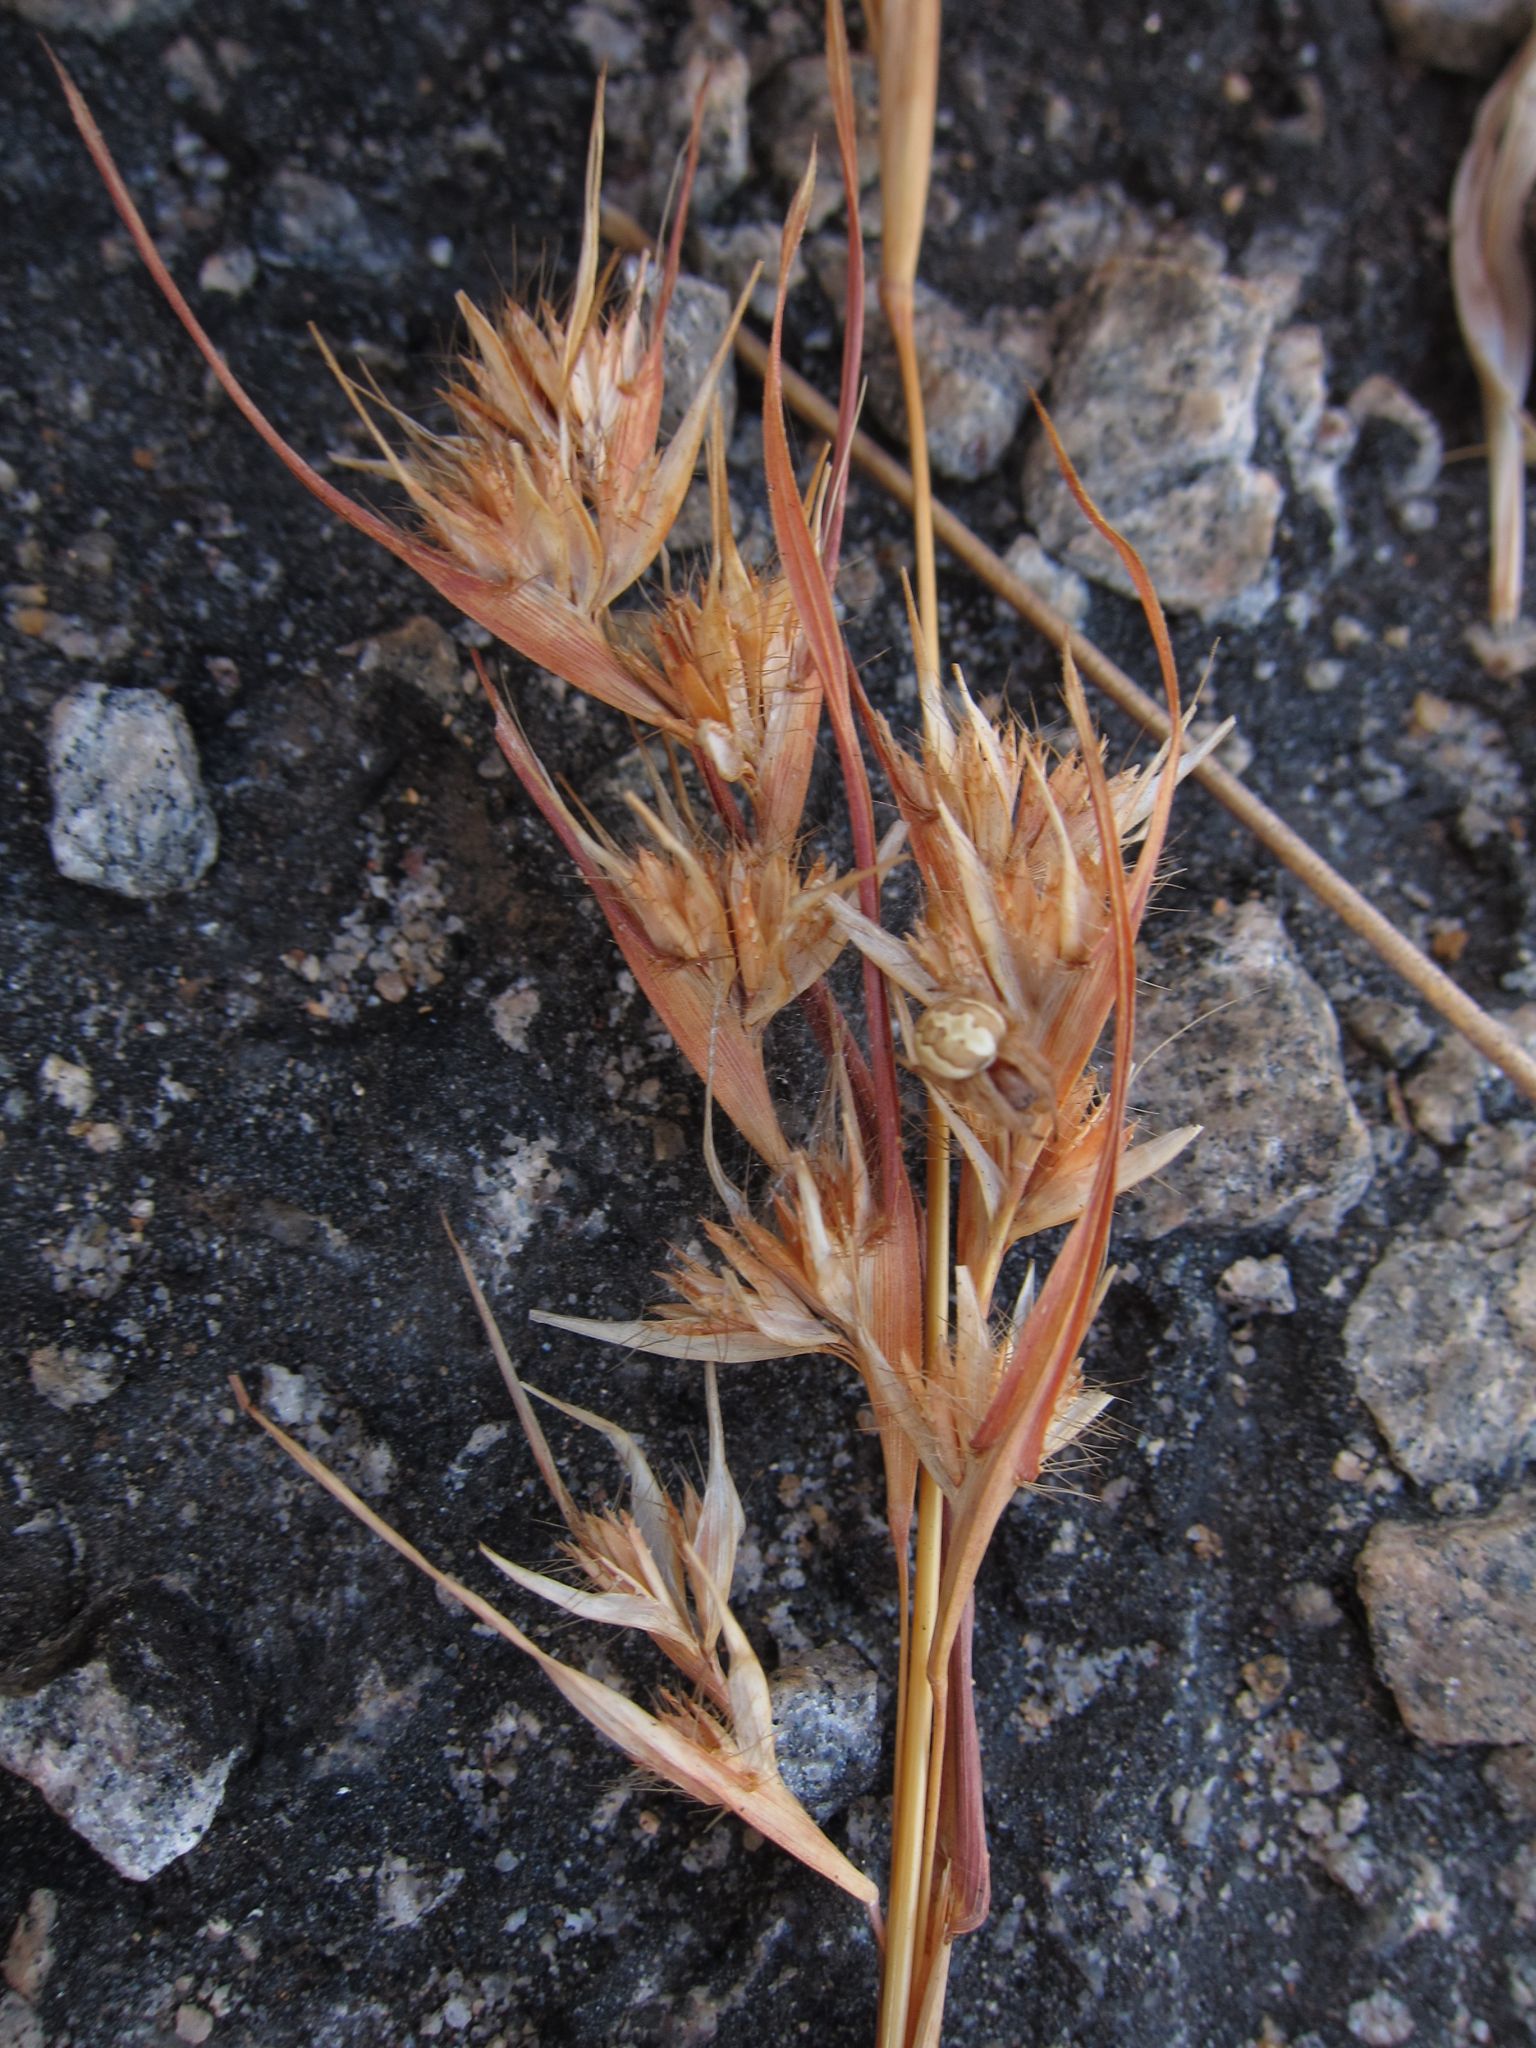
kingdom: Plantae
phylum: Tracheophyta
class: Liliopsida
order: Poales
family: Poaceae
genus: Themeda
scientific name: Themeda quadrivalvis
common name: Kangaroo grass
